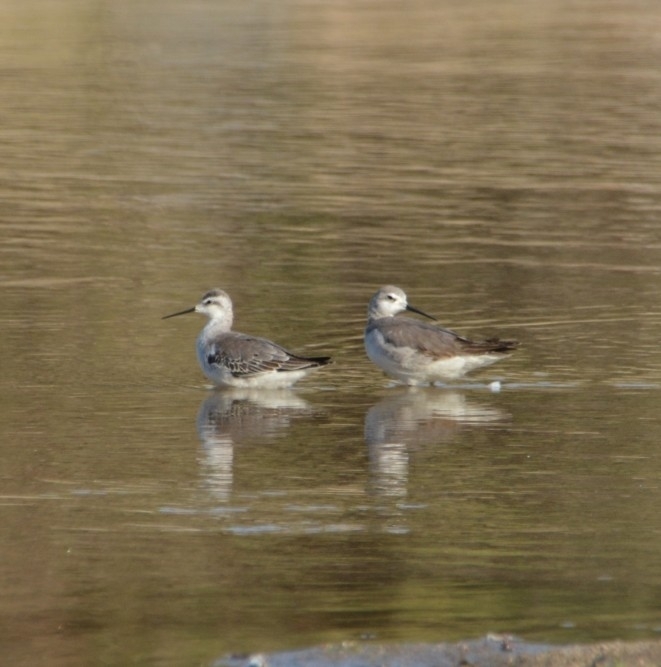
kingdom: Animalia
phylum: Chordata
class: Aves
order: Charadriiformes
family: Scolopacidae
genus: Phalaropus
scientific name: Phalaropus tricolor
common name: Wilson's phalarope
